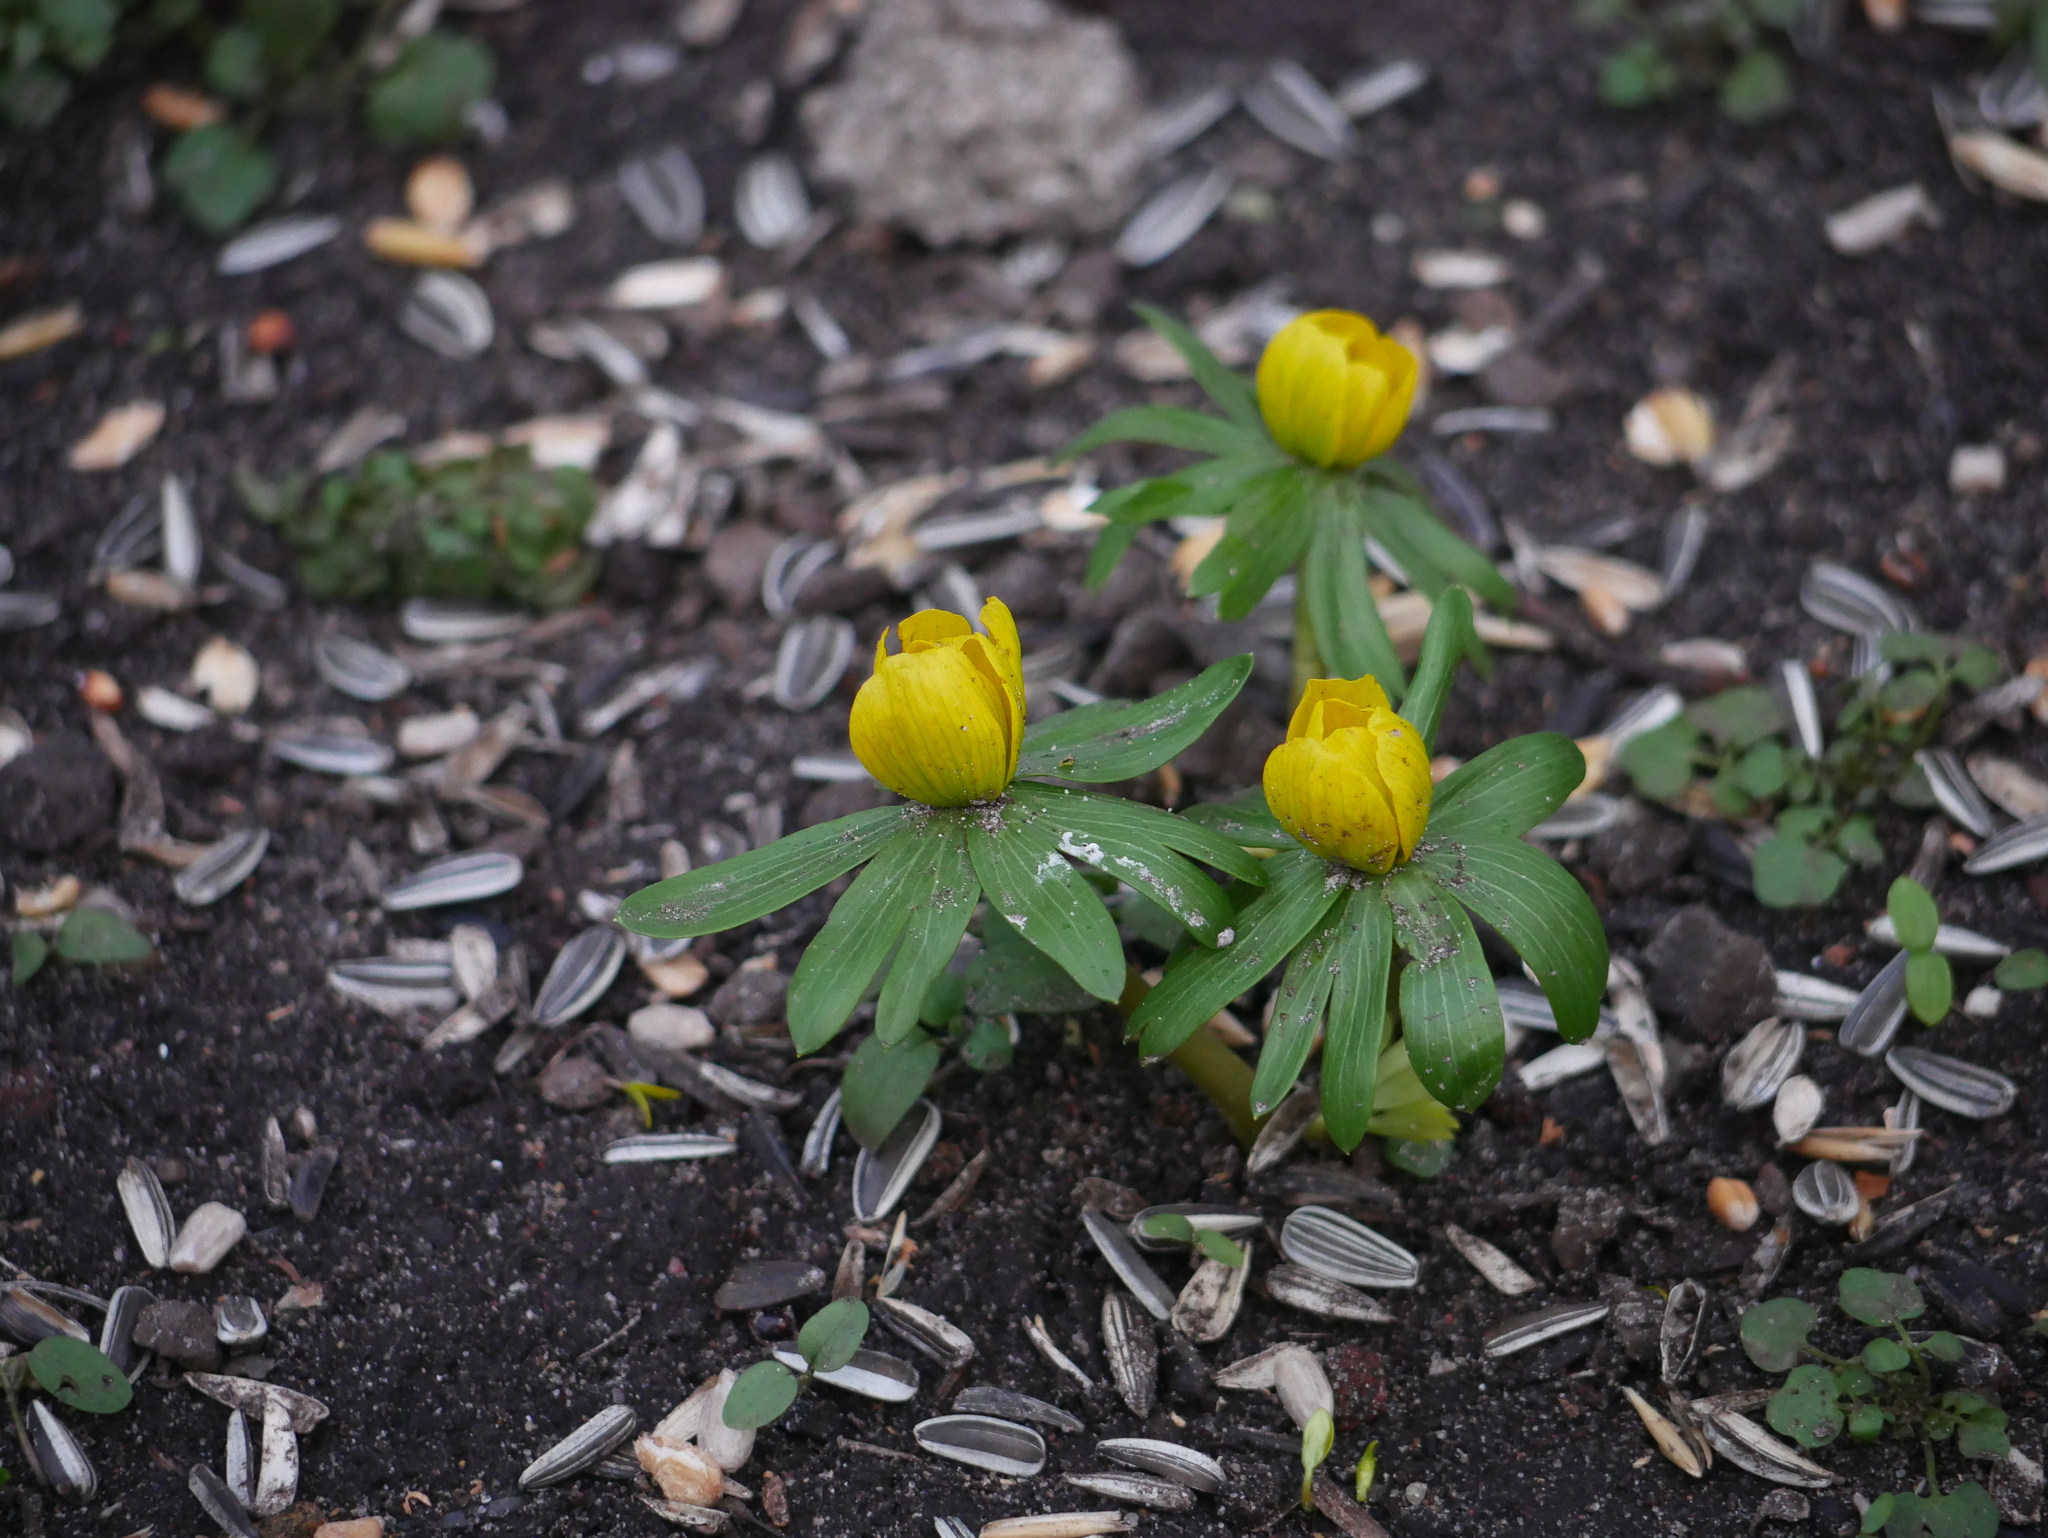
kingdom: Plantae
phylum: Tracheophyta
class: Magnoliopsida
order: Ranunculales
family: Ranunculaceae
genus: Eranthis
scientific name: Eranthis hyemalis
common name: Winter aconite
